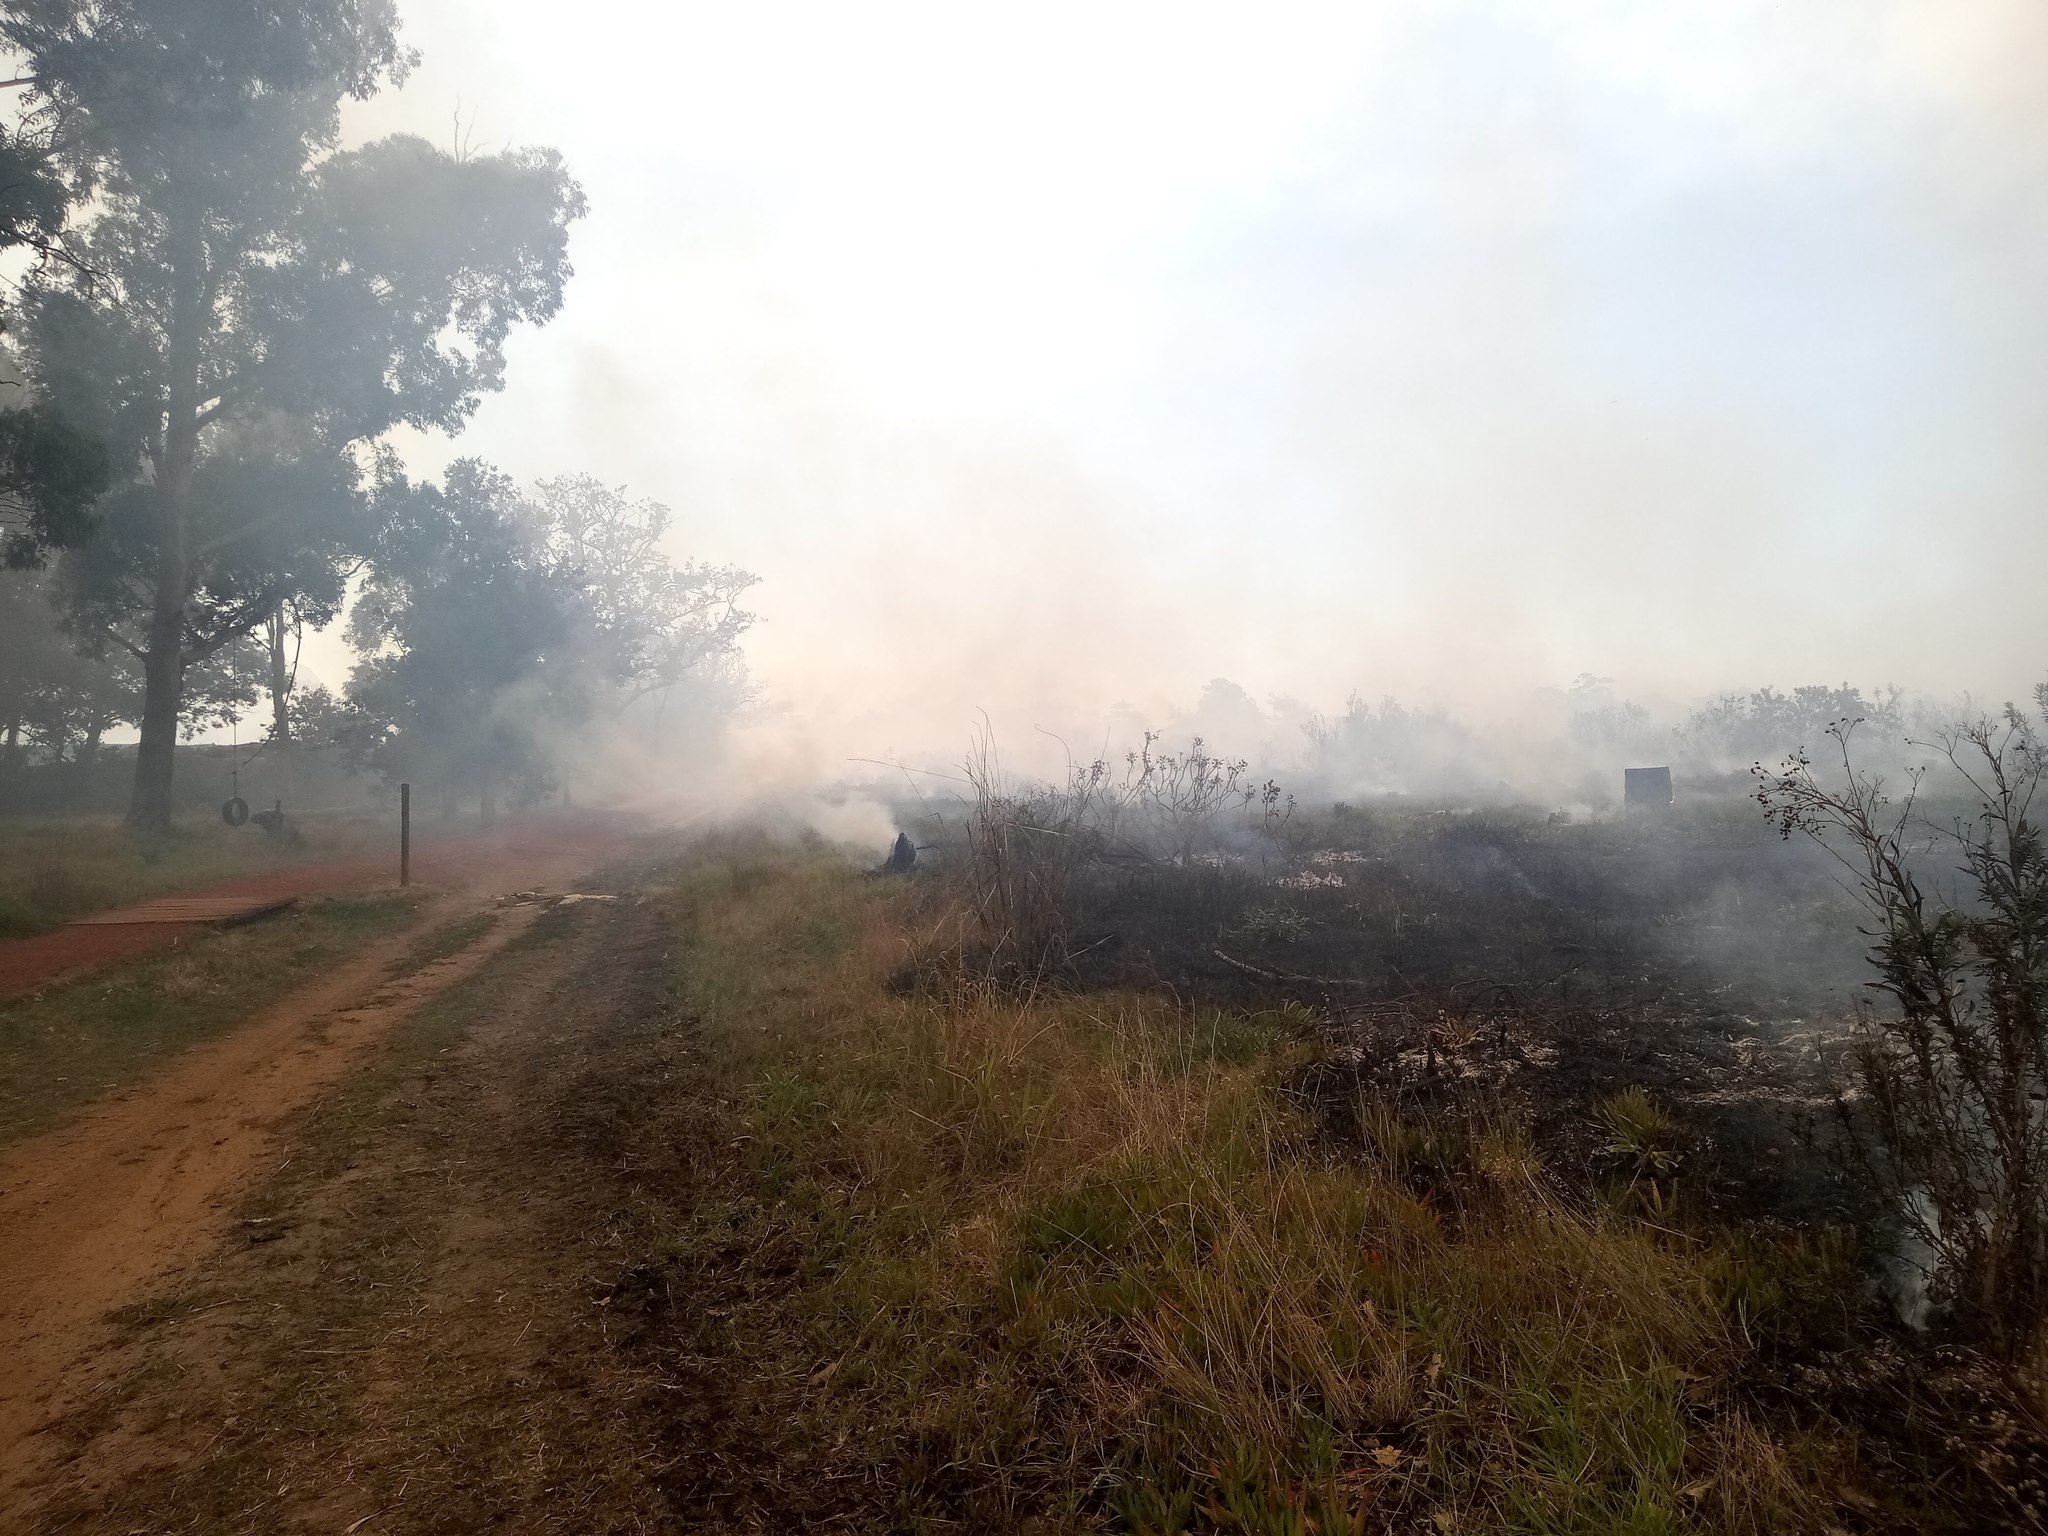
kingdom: Plantae
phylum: Tracheophyta
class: Magnoliopsida
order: Asterales
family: Asteraceae
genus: Senecio
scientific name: Senecio pterophorus
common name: Shoddy ragwort
